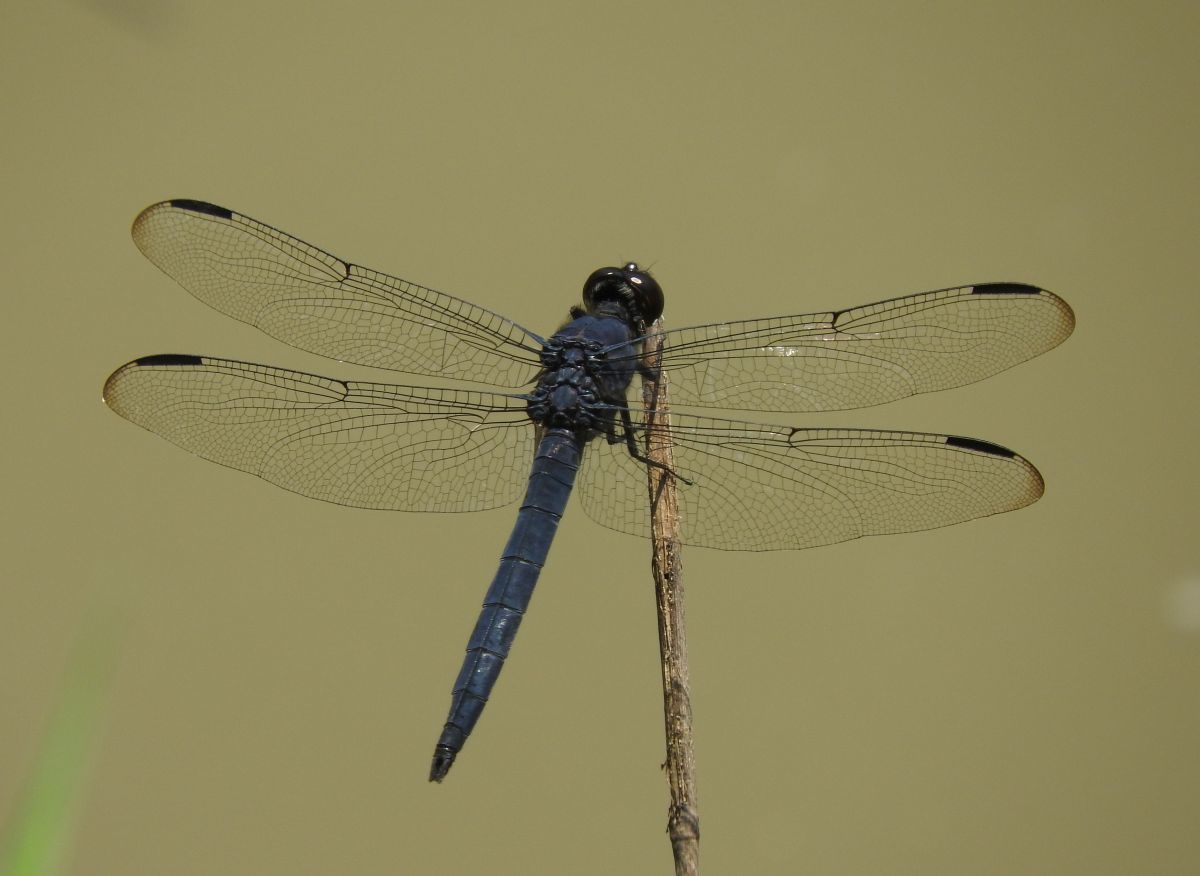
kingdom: Animalia
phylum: Arthropoda
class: Insecta
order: Odonata
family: Libellulidae
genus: Libellula
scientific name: Libellula incesta
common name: Slaty skimmer
